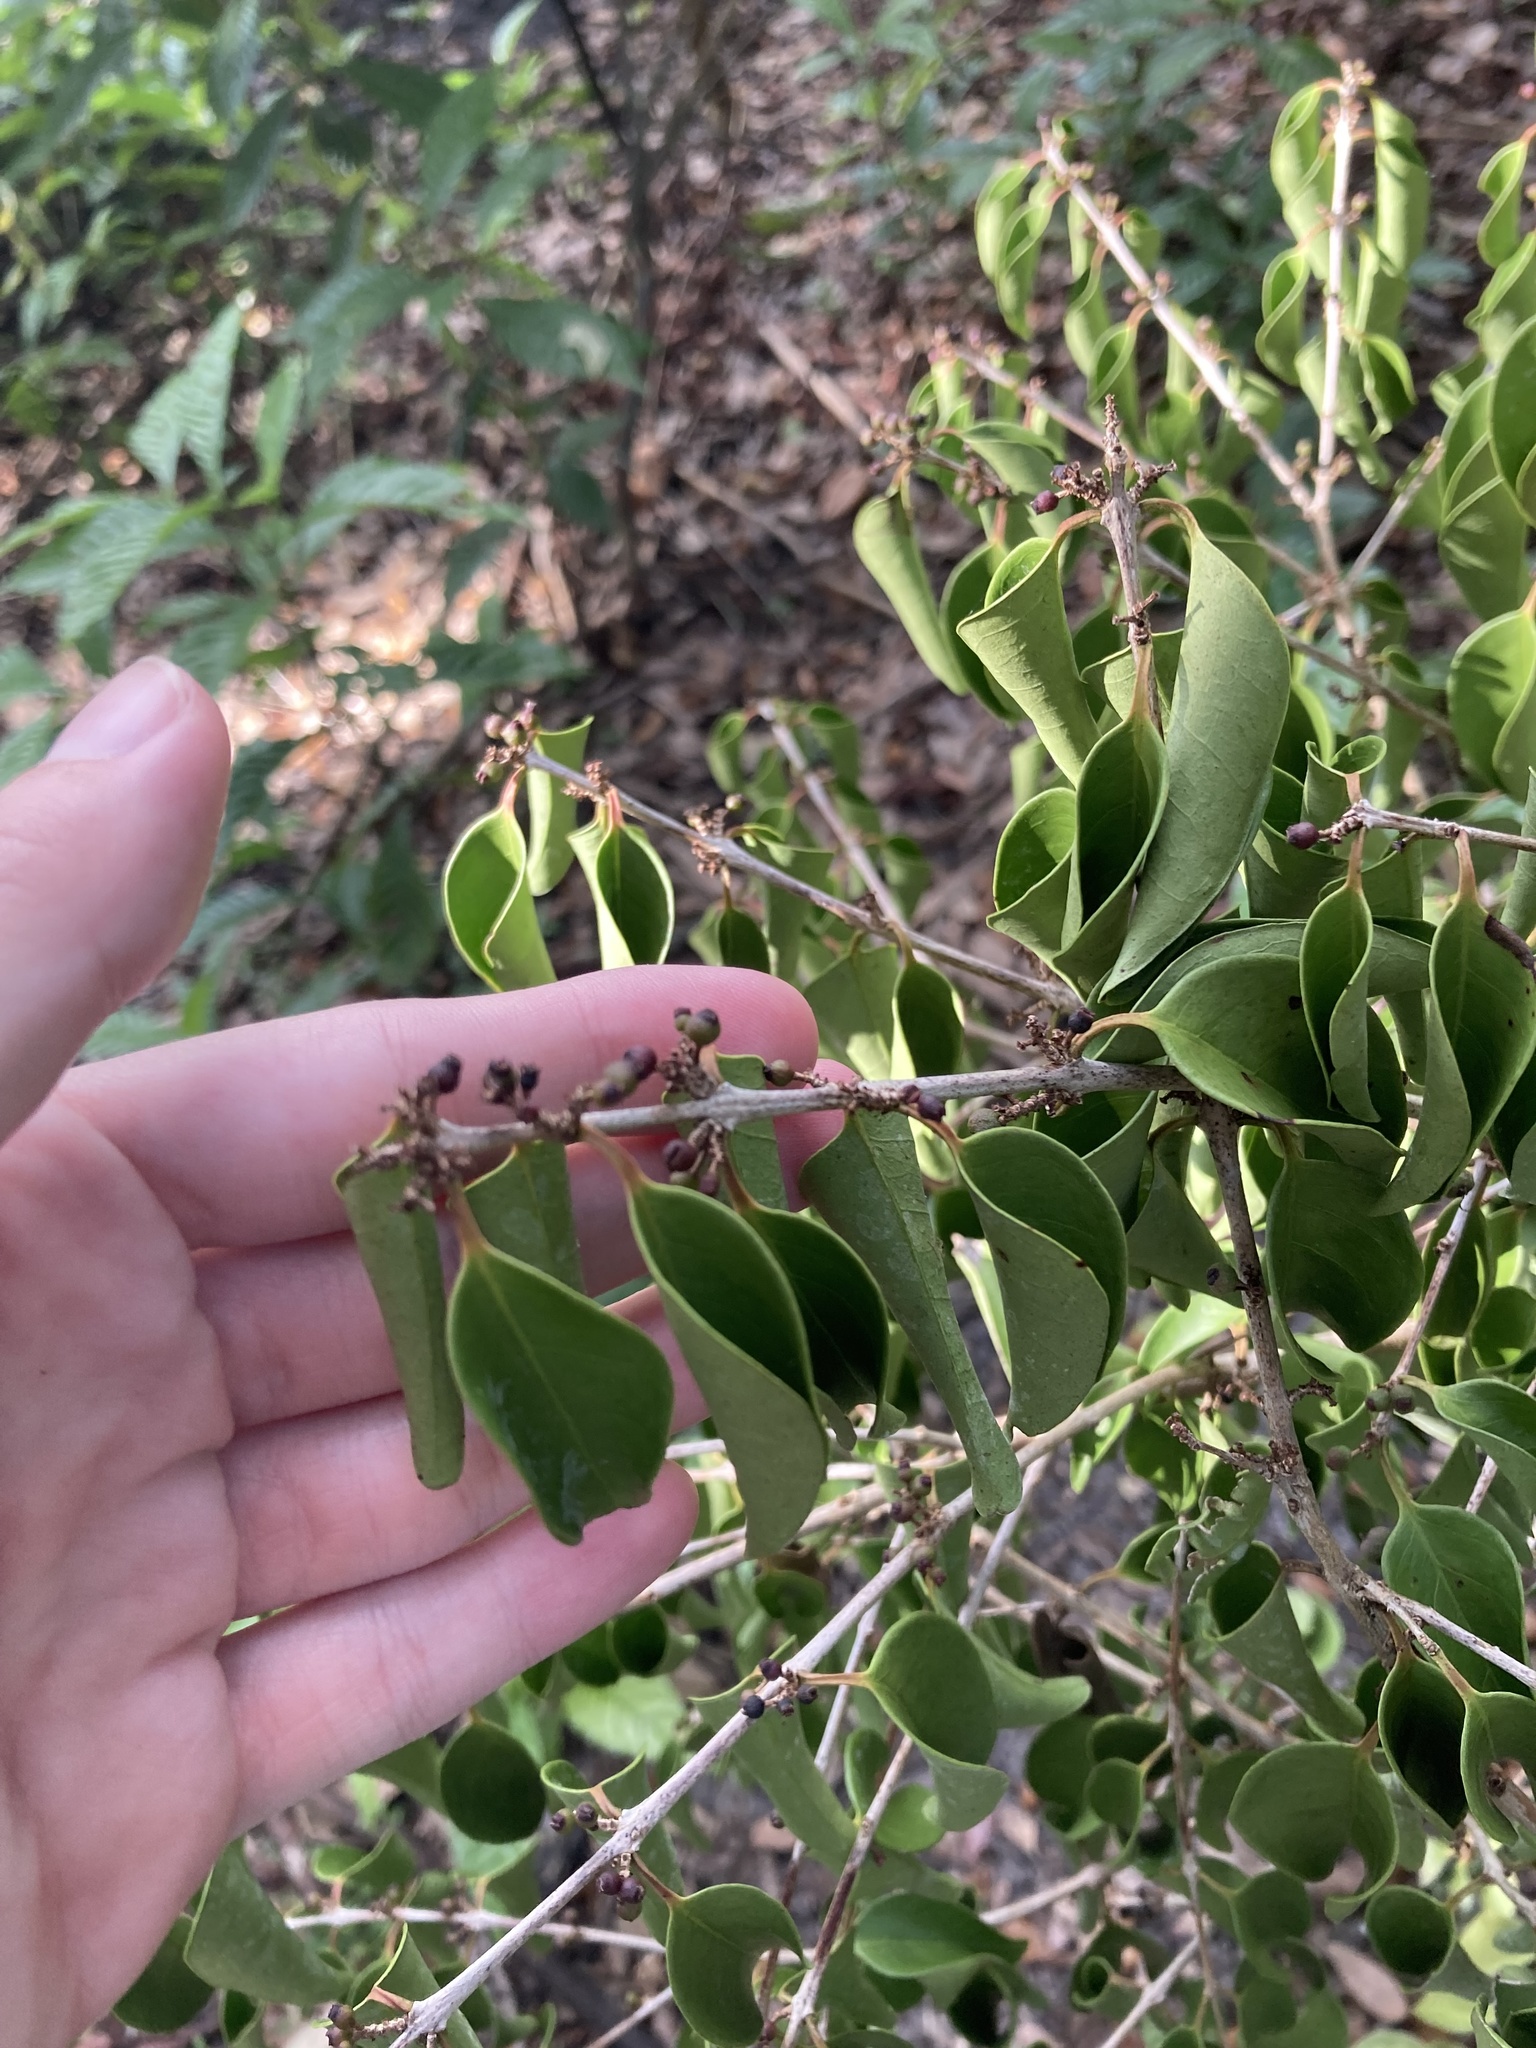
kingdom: Plantae
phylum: Tracheophyta
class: Magnoliopsida
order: Myrtales
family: Myrtaceae
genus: Eugenia
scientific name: Eugenia axillaris
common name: Choaky berry
